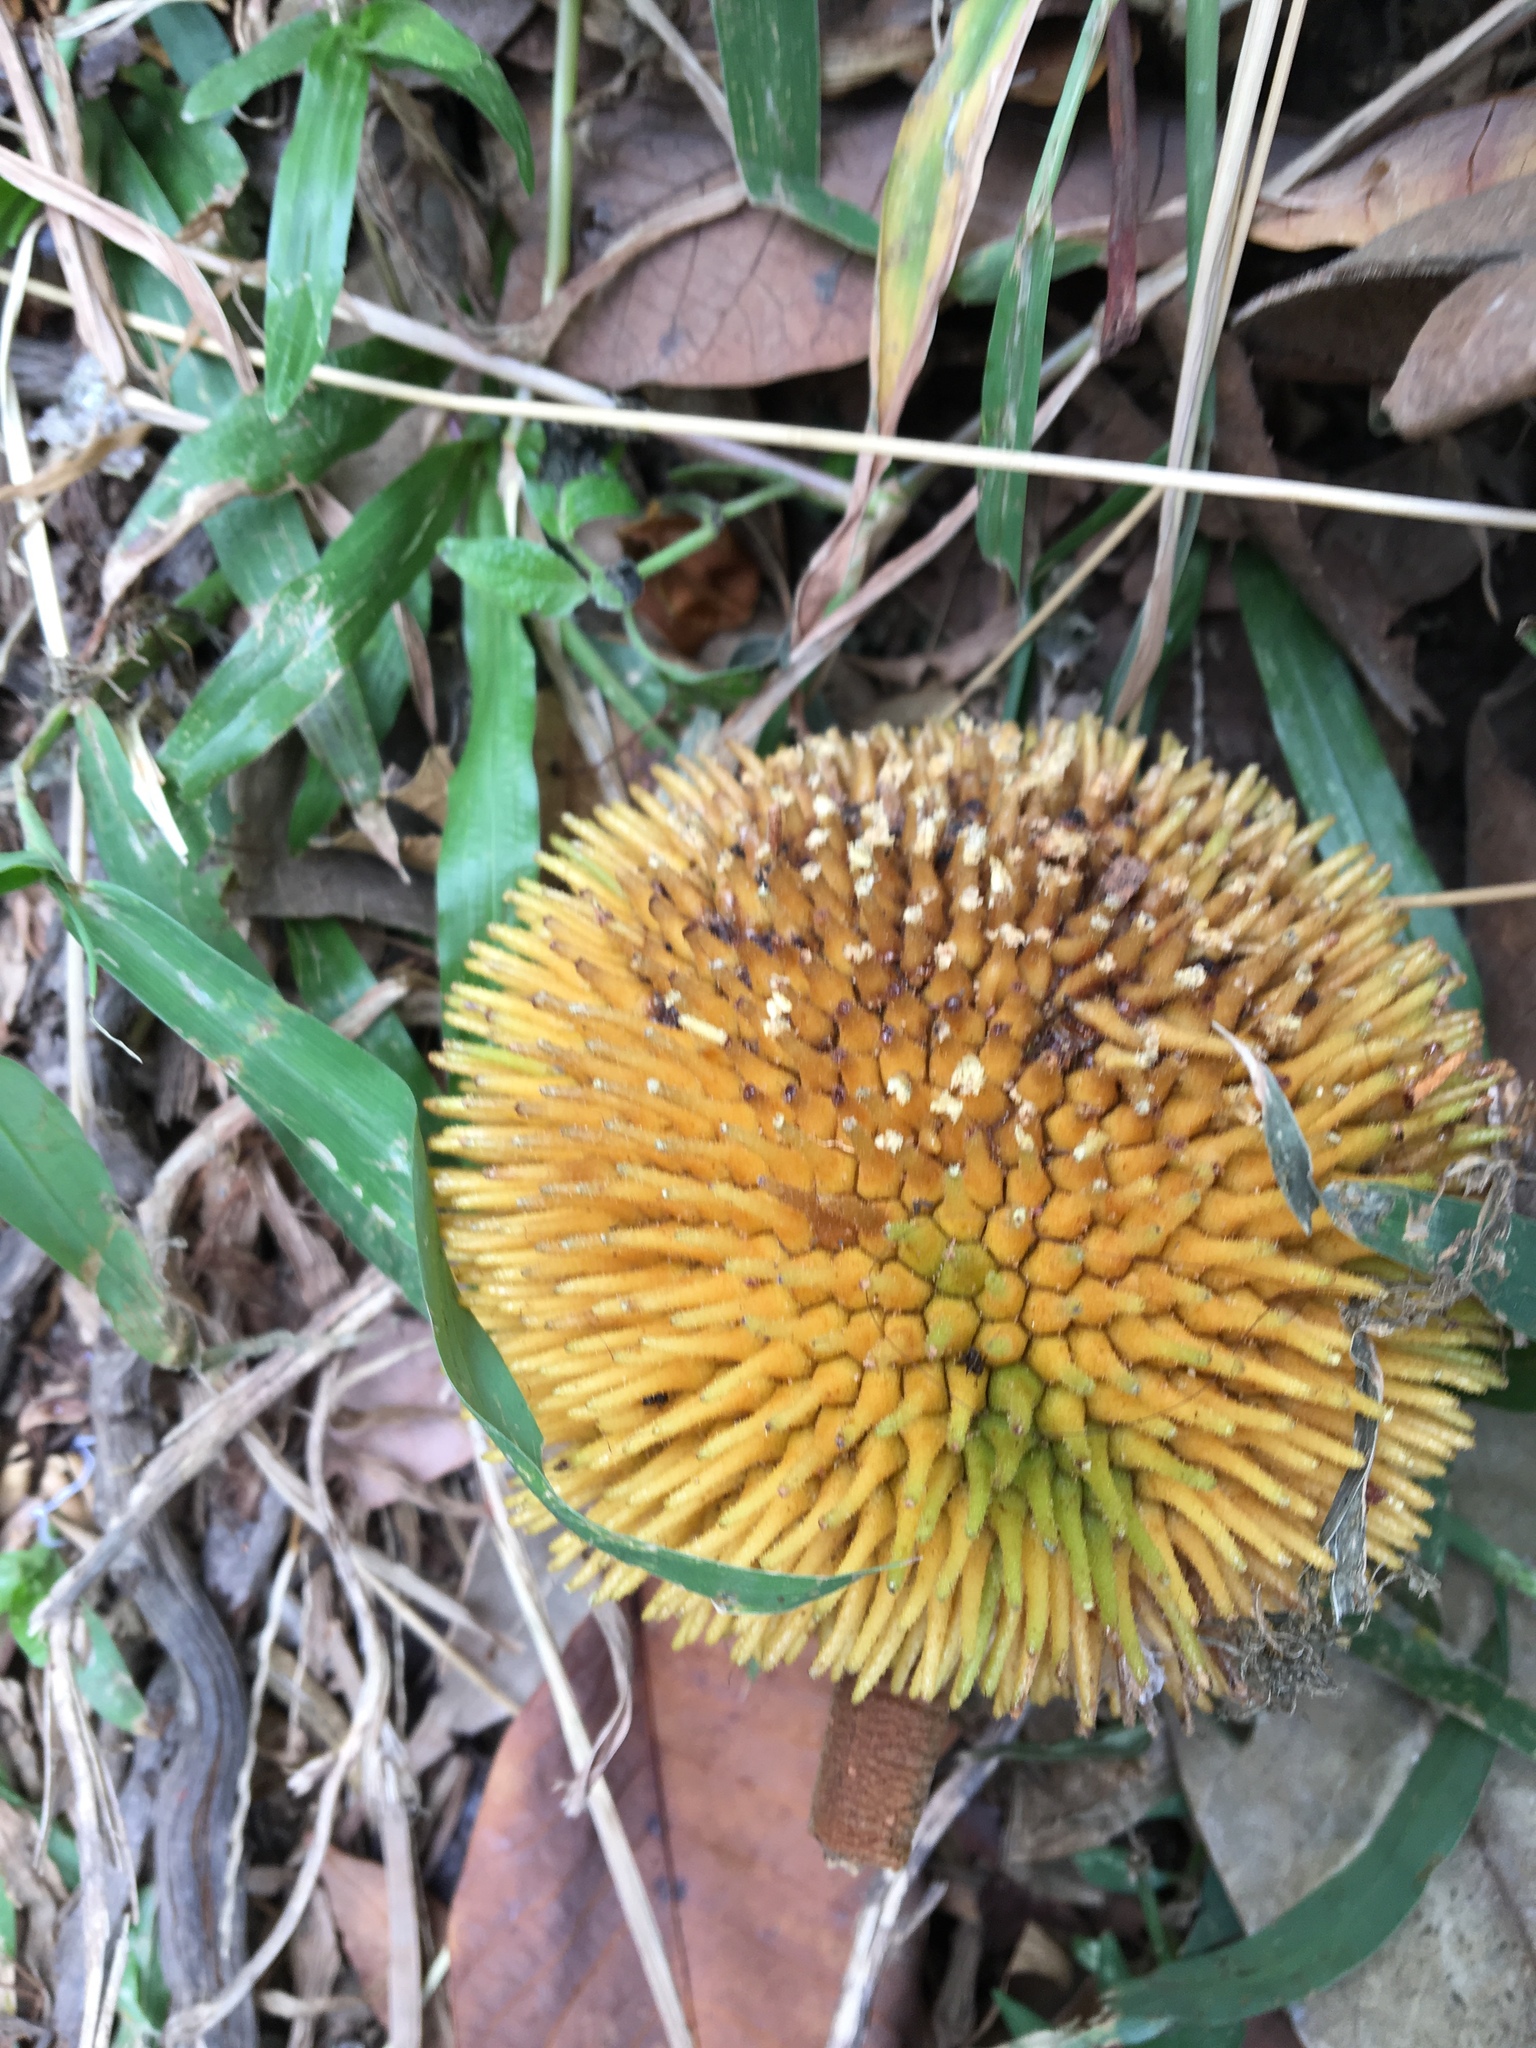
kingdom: Plantae
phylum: Tracheophyta
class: Magnoliopsida
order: Rosales
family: Moraceae
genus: Artocarpus
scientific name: Artocarpus rigidus
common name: Monkey-jack
